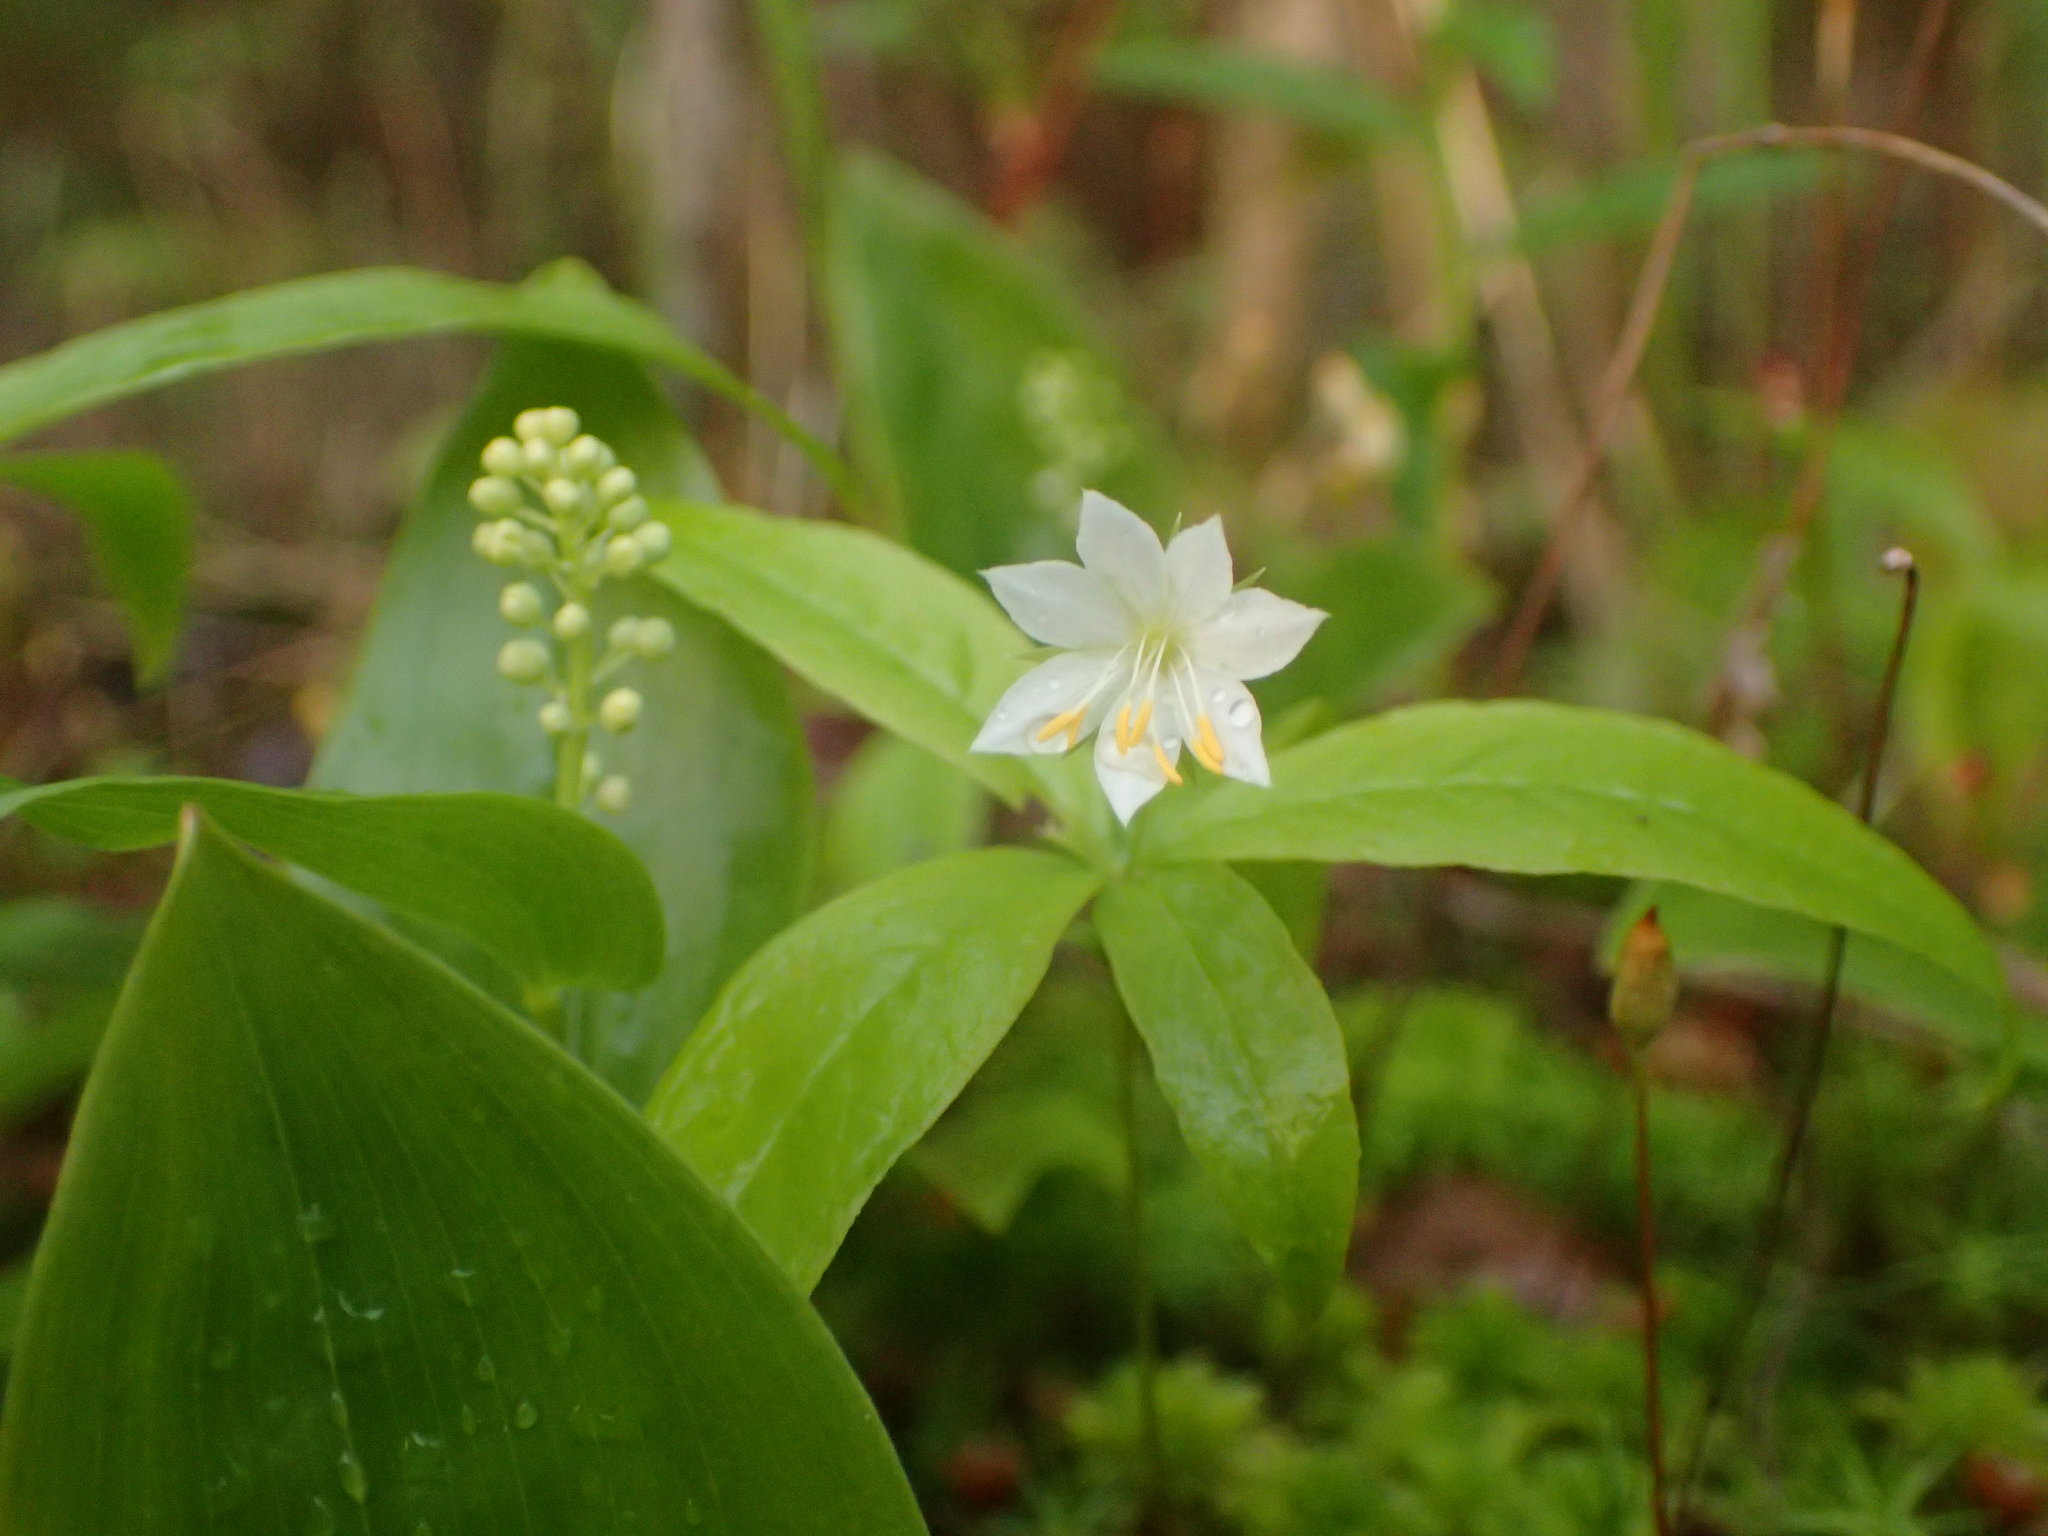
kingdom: Plantae
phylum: Tracheophyta
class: Magnoliopsida
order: Ericales
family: Primulaceae
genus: Lysimachia
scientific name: Lysimachia borealis
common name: American starflower
